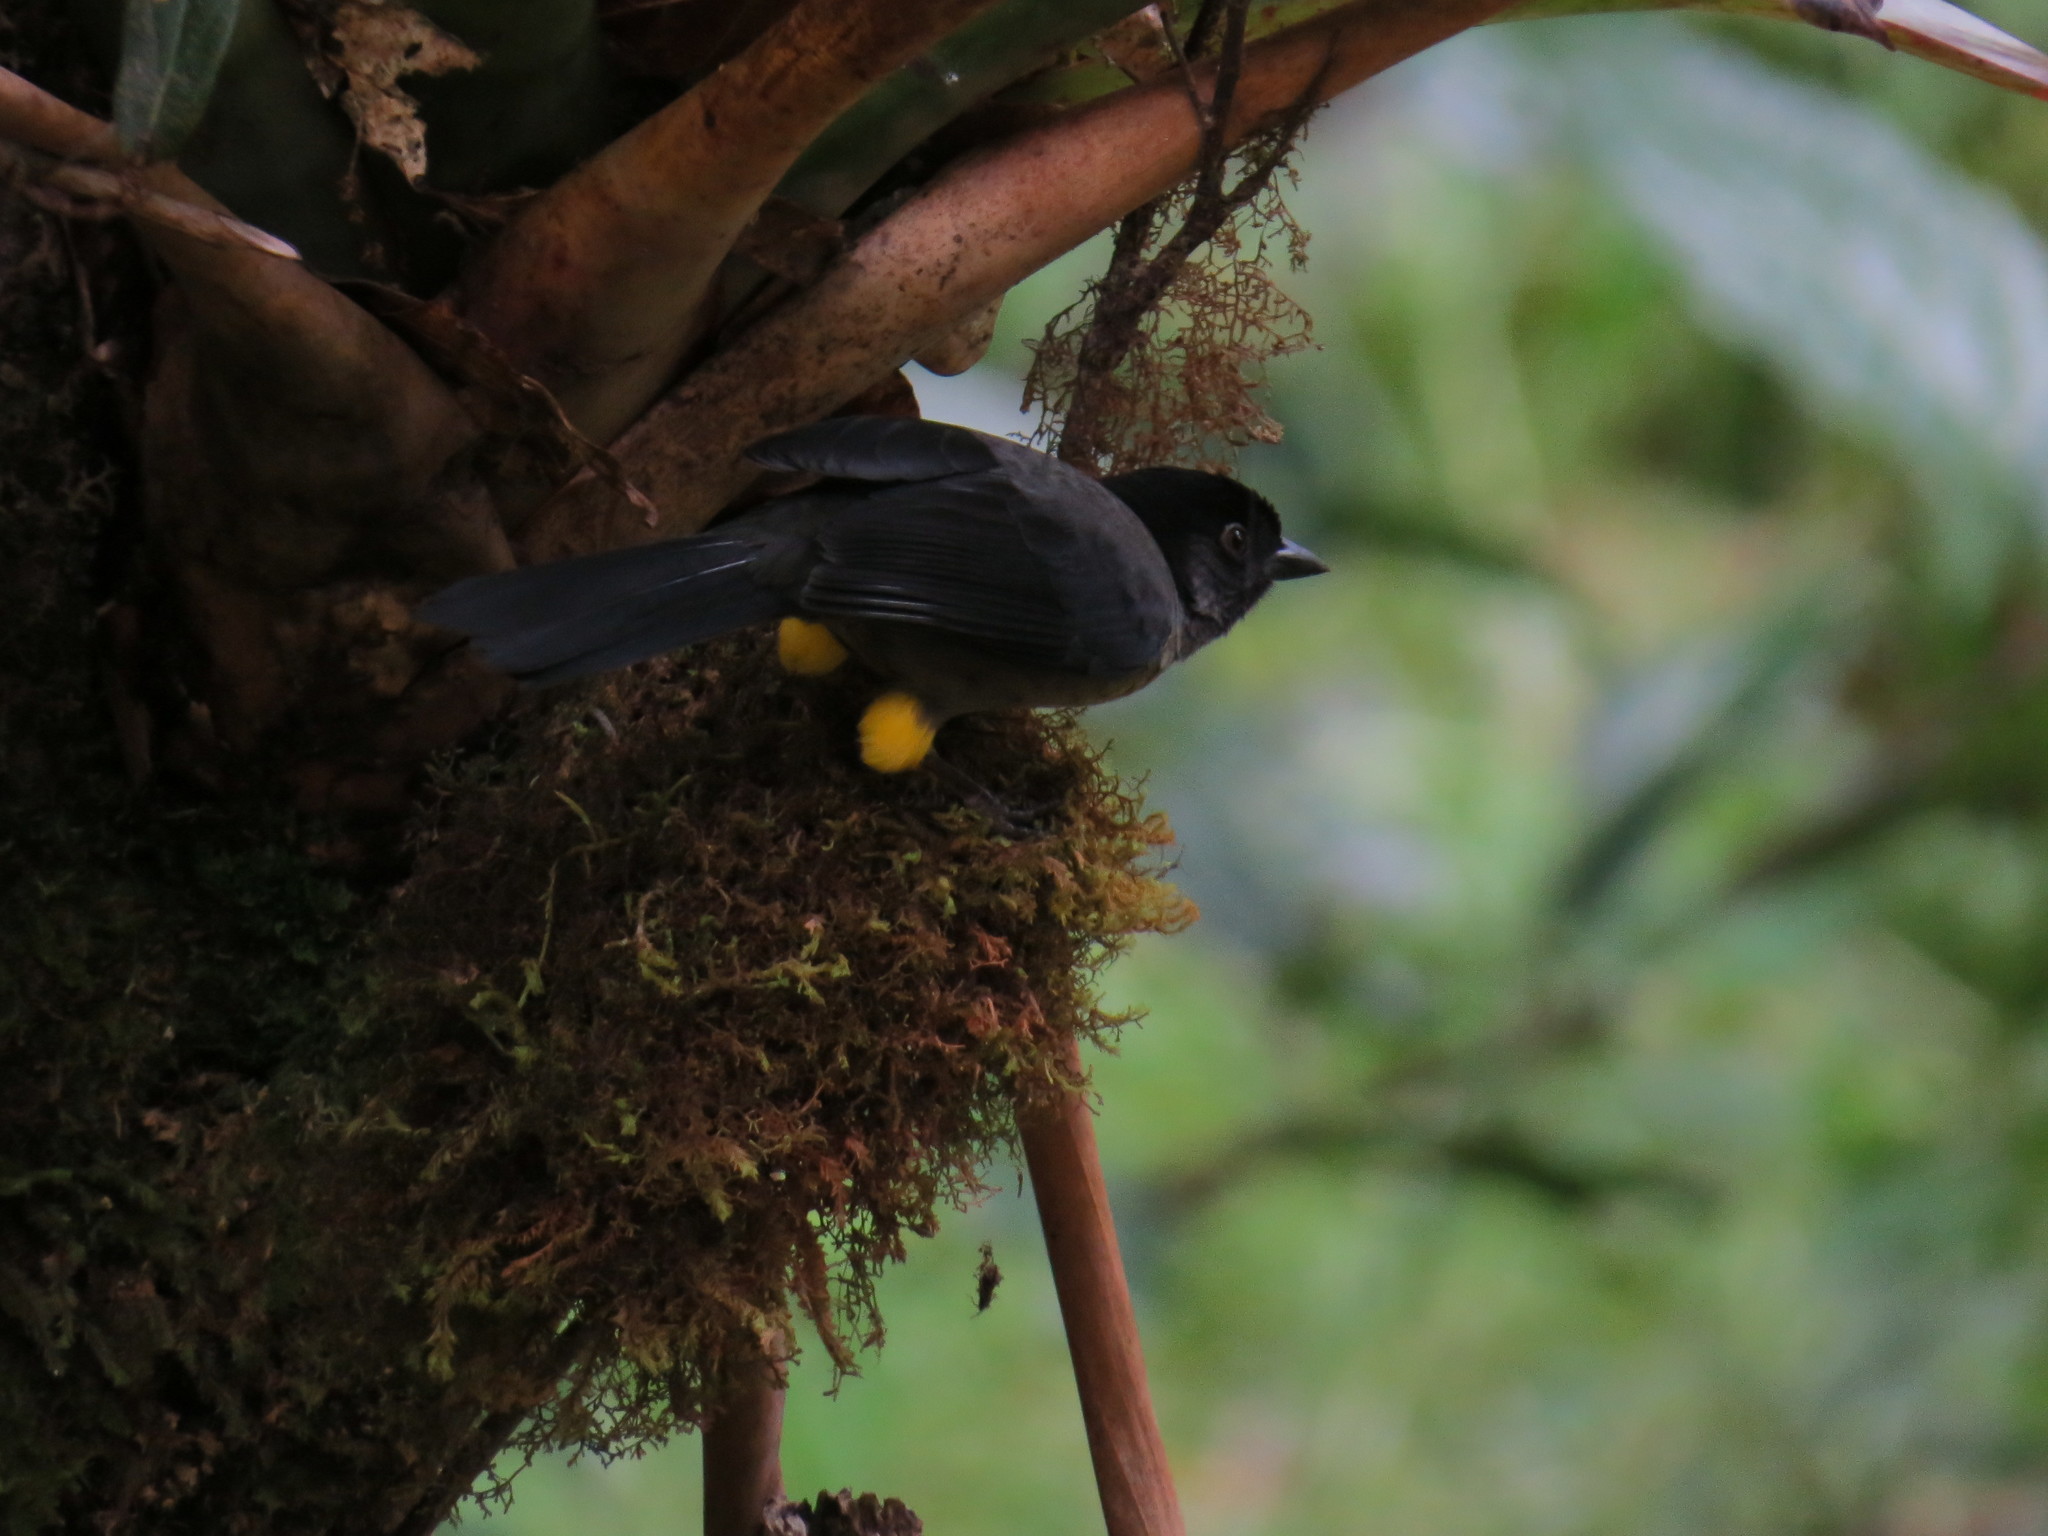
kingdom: Animalia
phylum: Chordata
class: Aves
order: Passeriformes
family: Passerellidae
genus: Atlapetes
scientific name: Atlapetes tibialis
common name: Yellow-thighed brushfinch
